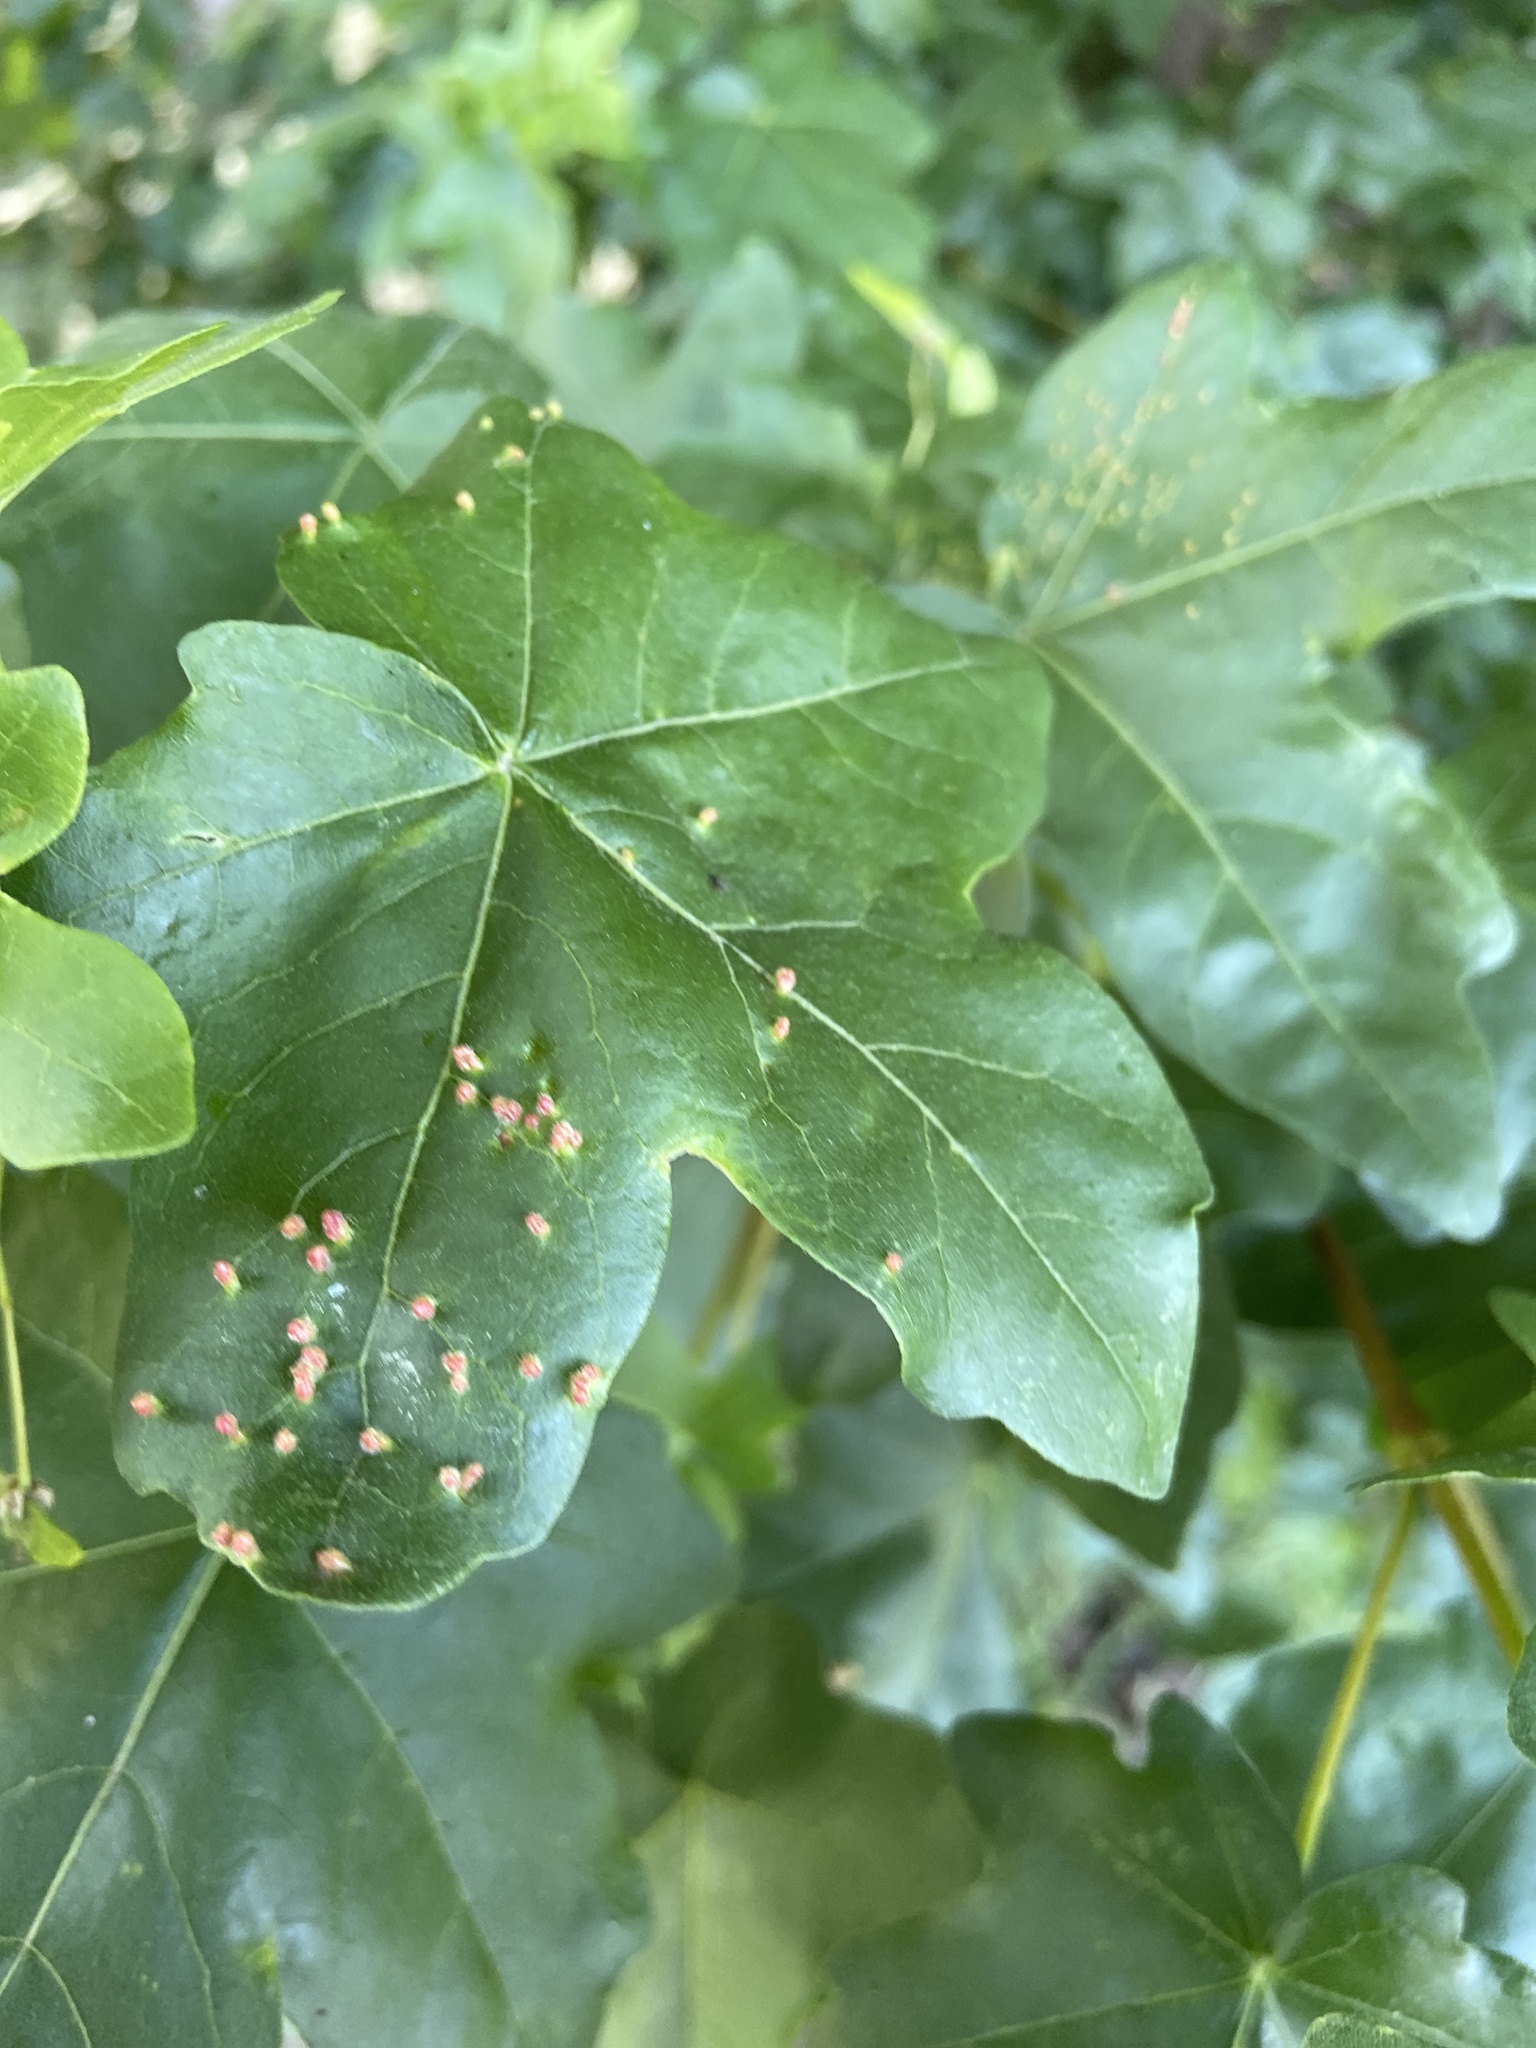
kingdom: Animalia
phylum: Arthropoda
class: Arachnida
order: Trombidiformes
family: Eriophyidae
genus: Aceria
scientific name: Aceria myriadeum
